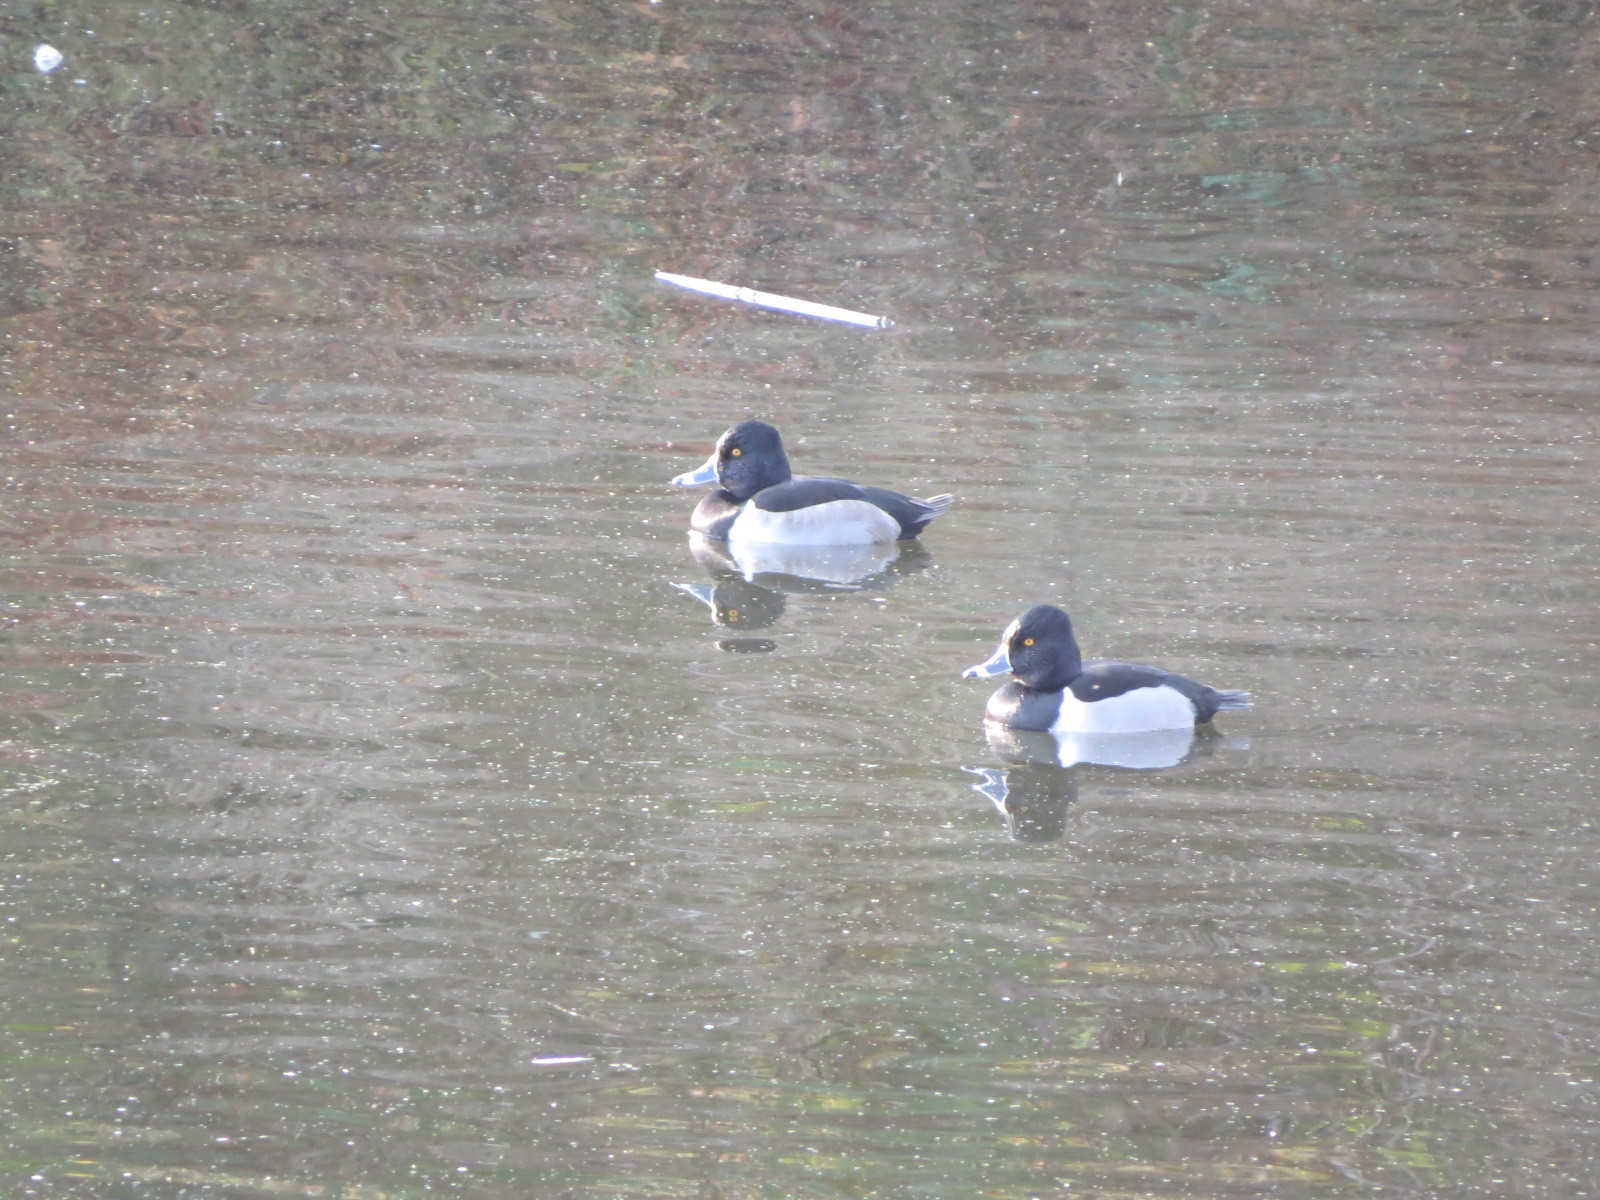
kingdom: Animalia
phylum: Chordata
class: Aves
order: Anseriformes
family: Anatidae
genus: Aythya
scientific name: Aythya collaris
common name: Ring-necked duck
